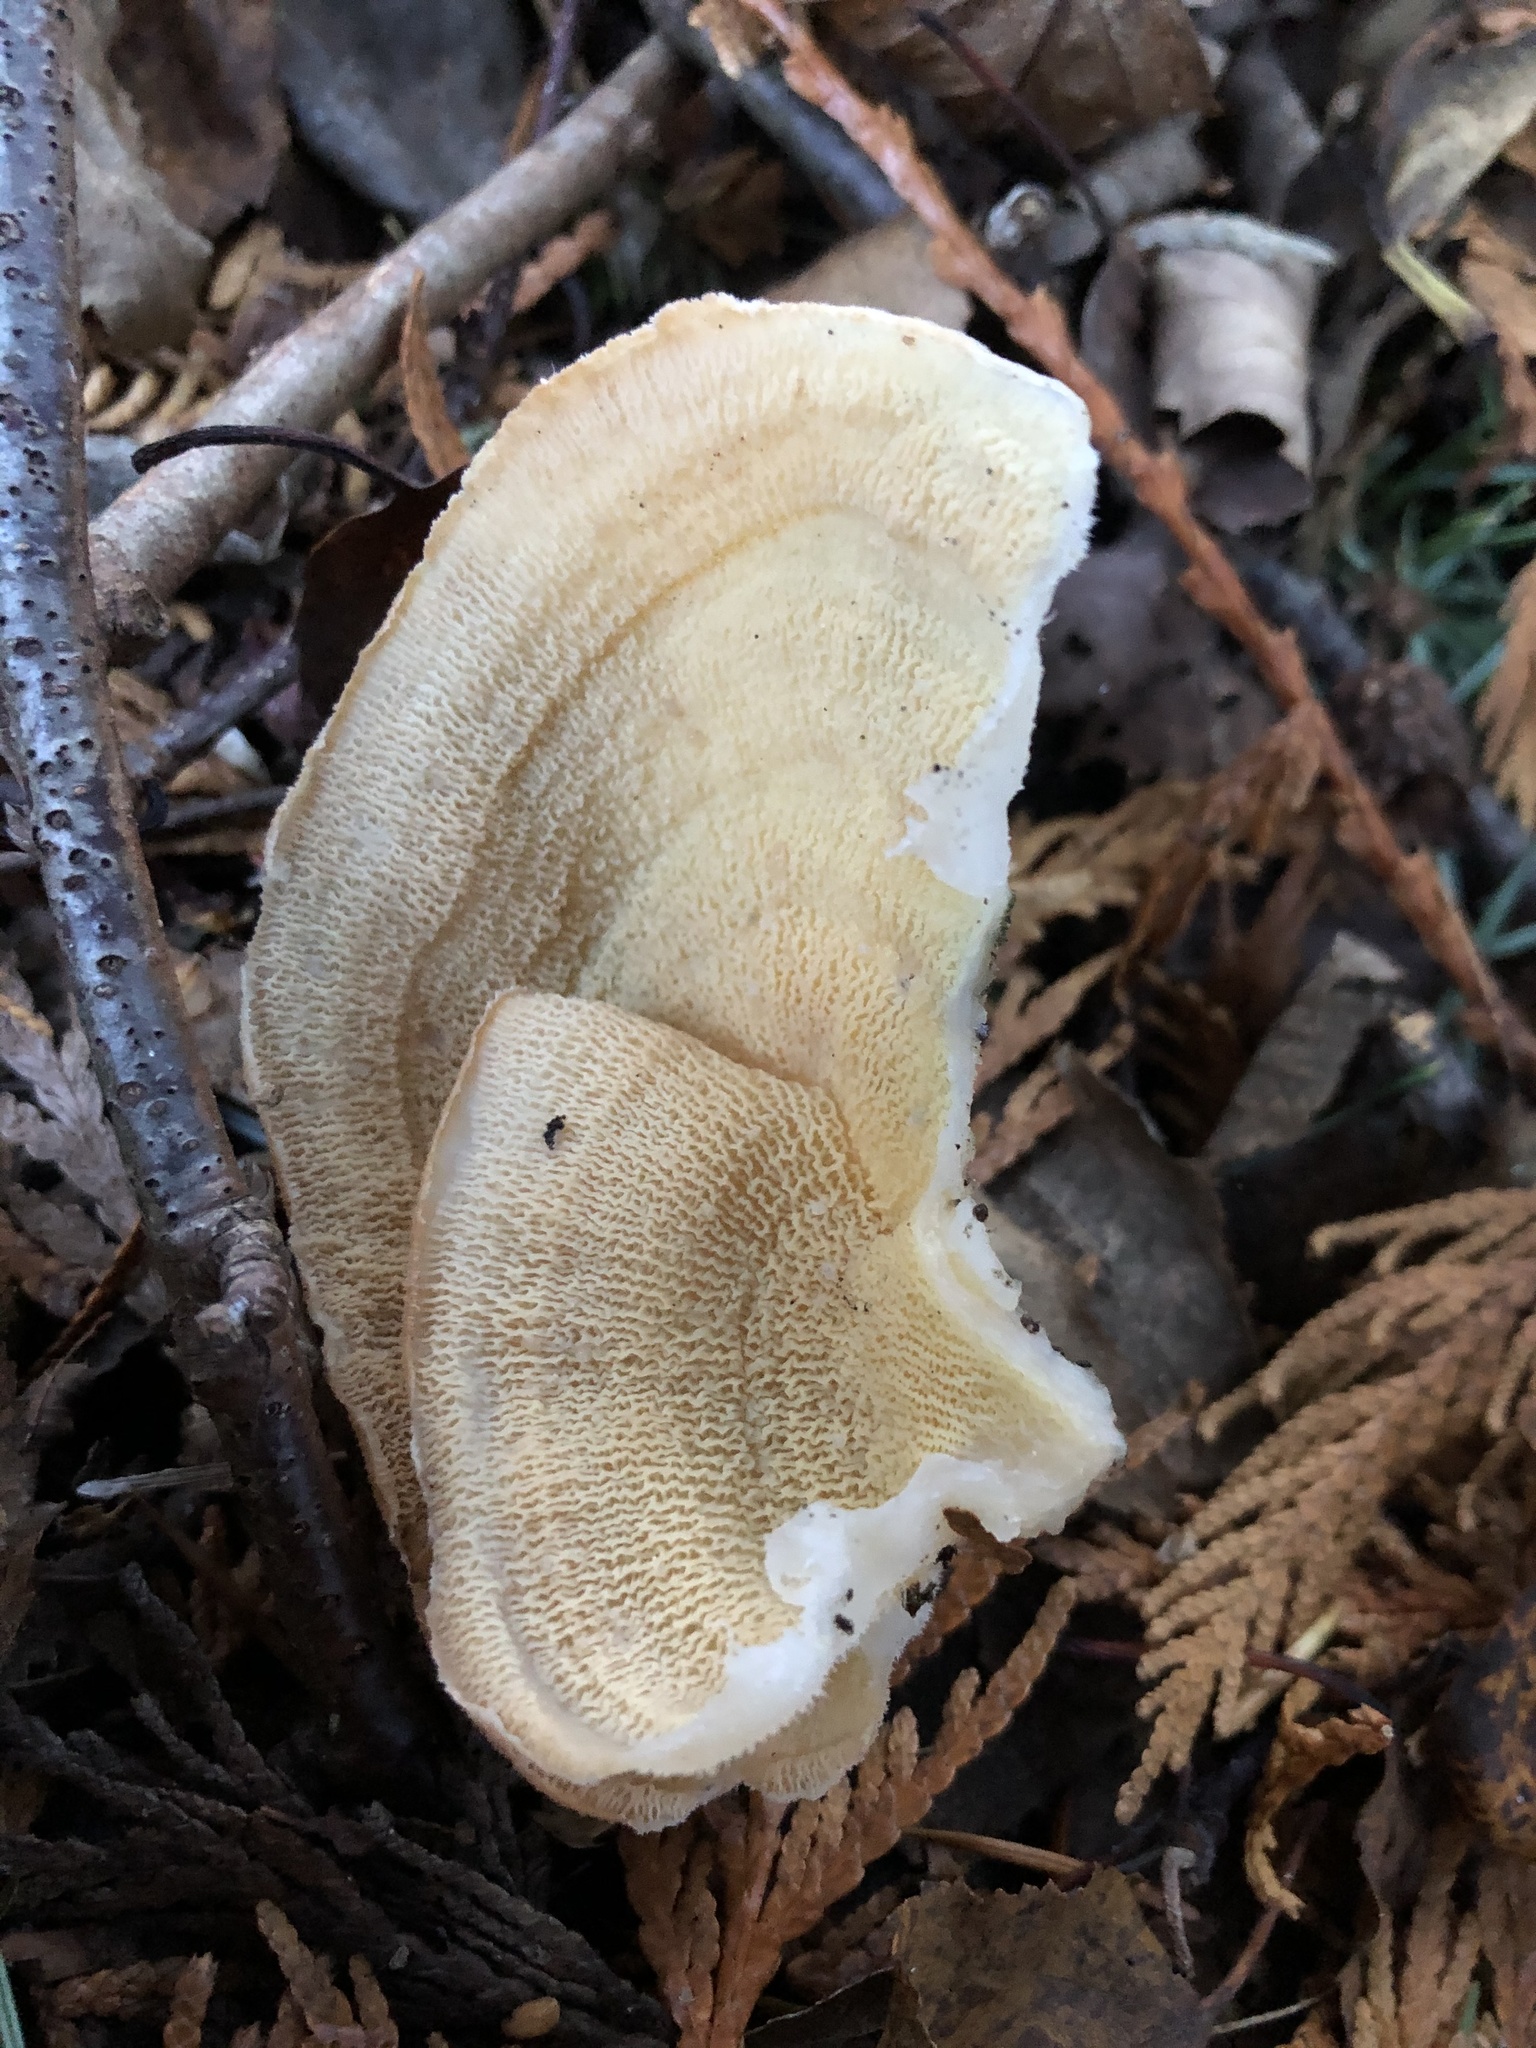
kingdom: Fungi
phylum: Basidiomycota
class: Agaricomycetes
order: Polyporales
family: Meruliaceae
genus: Phlebia
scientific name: Phlebia tremellosa
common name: Jelly rot
